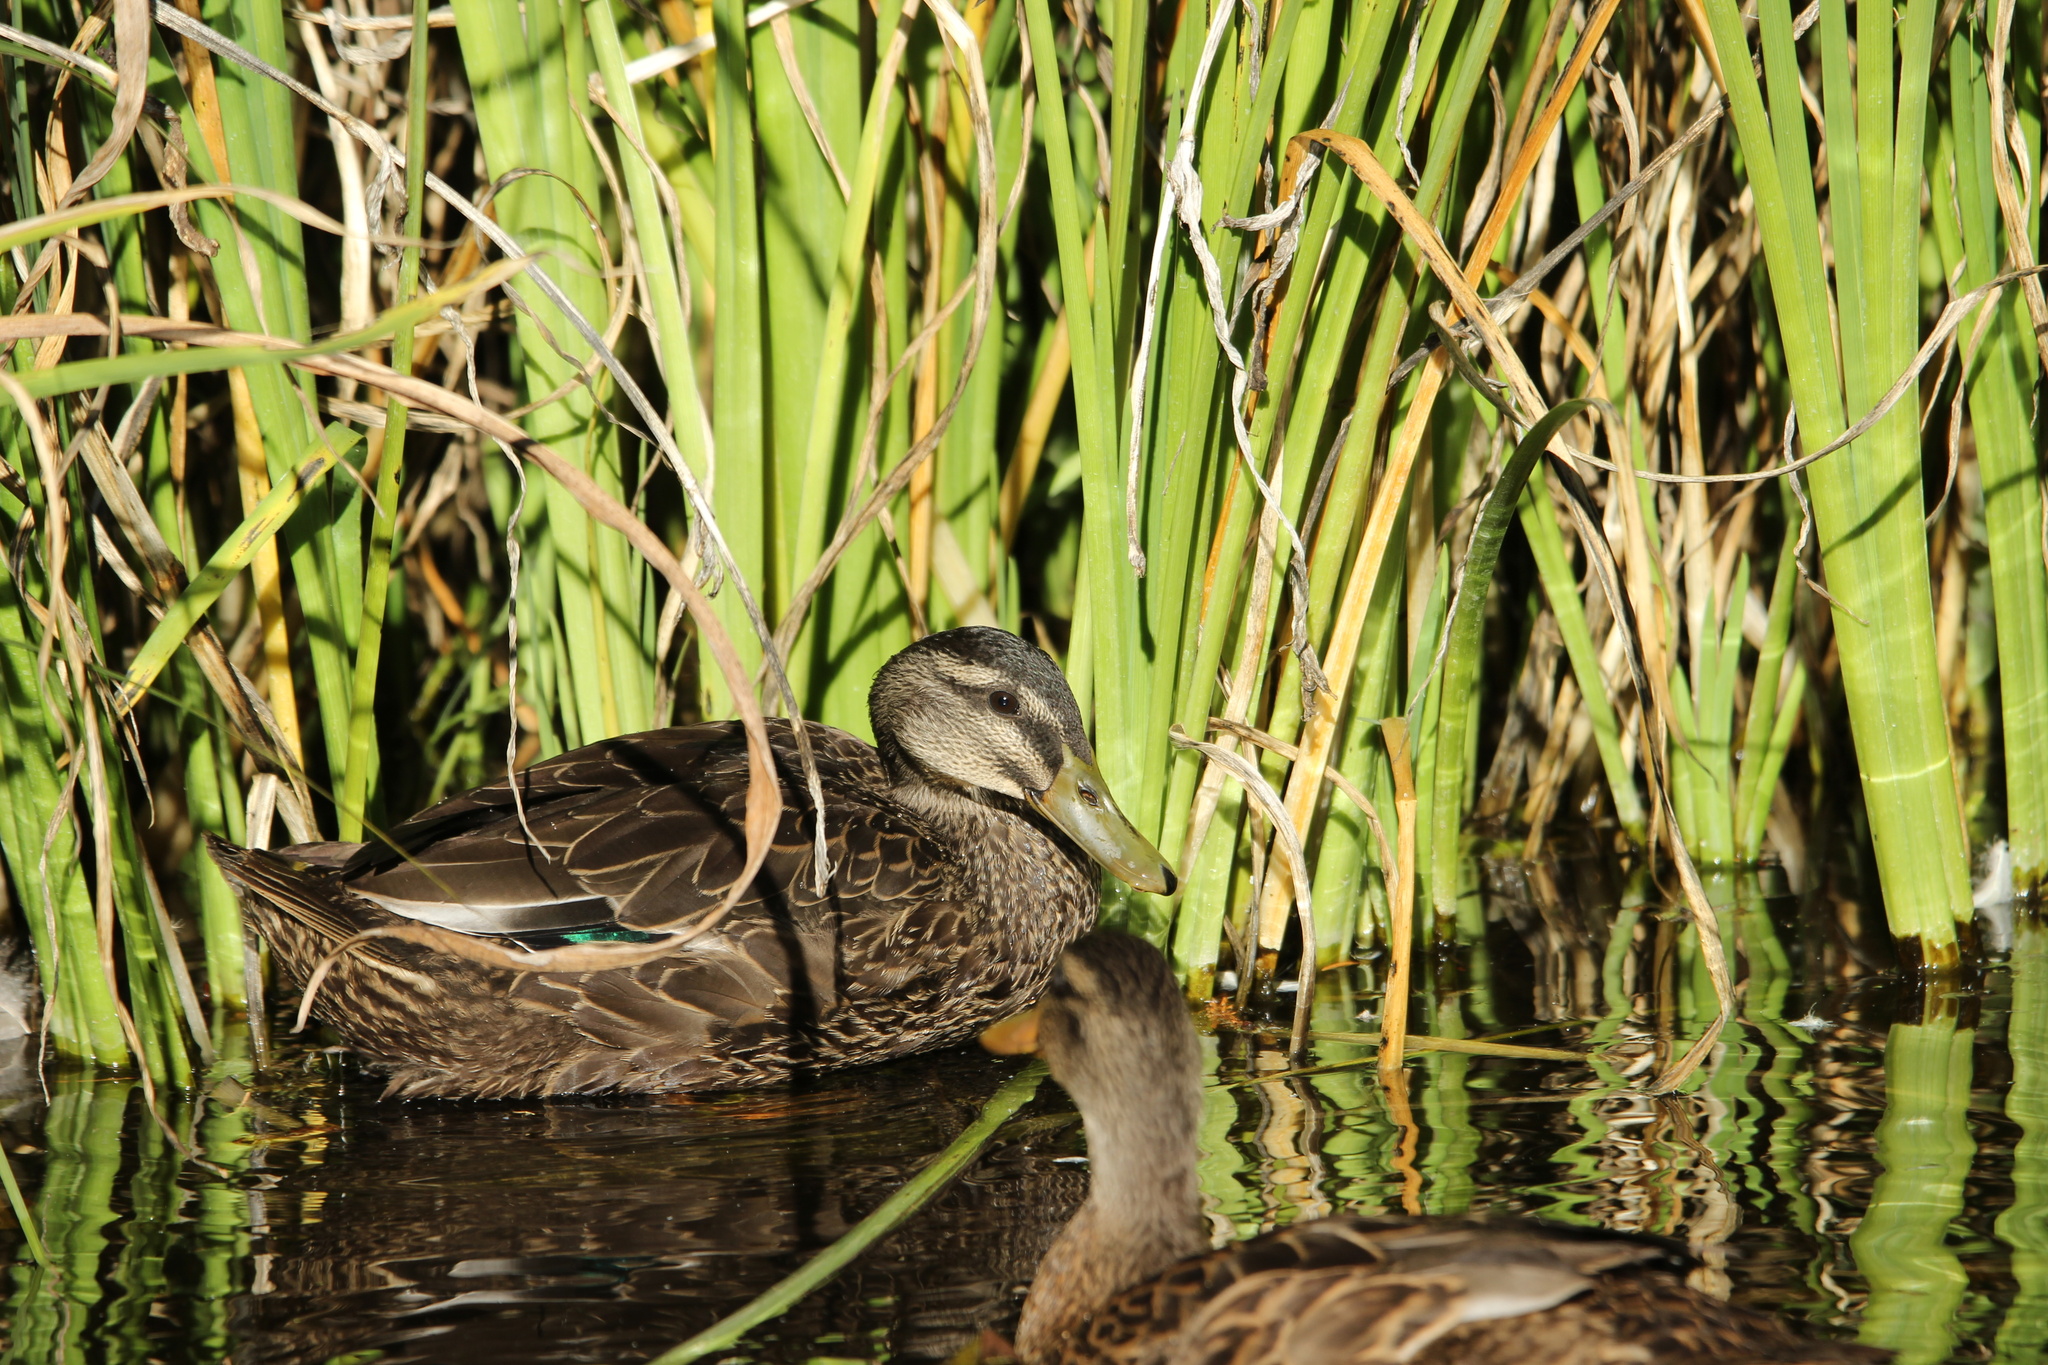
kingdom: Animalia
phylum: Chordata
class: Aves
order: Anseriformes
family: Anatidae
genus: Anas
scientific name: Anas
